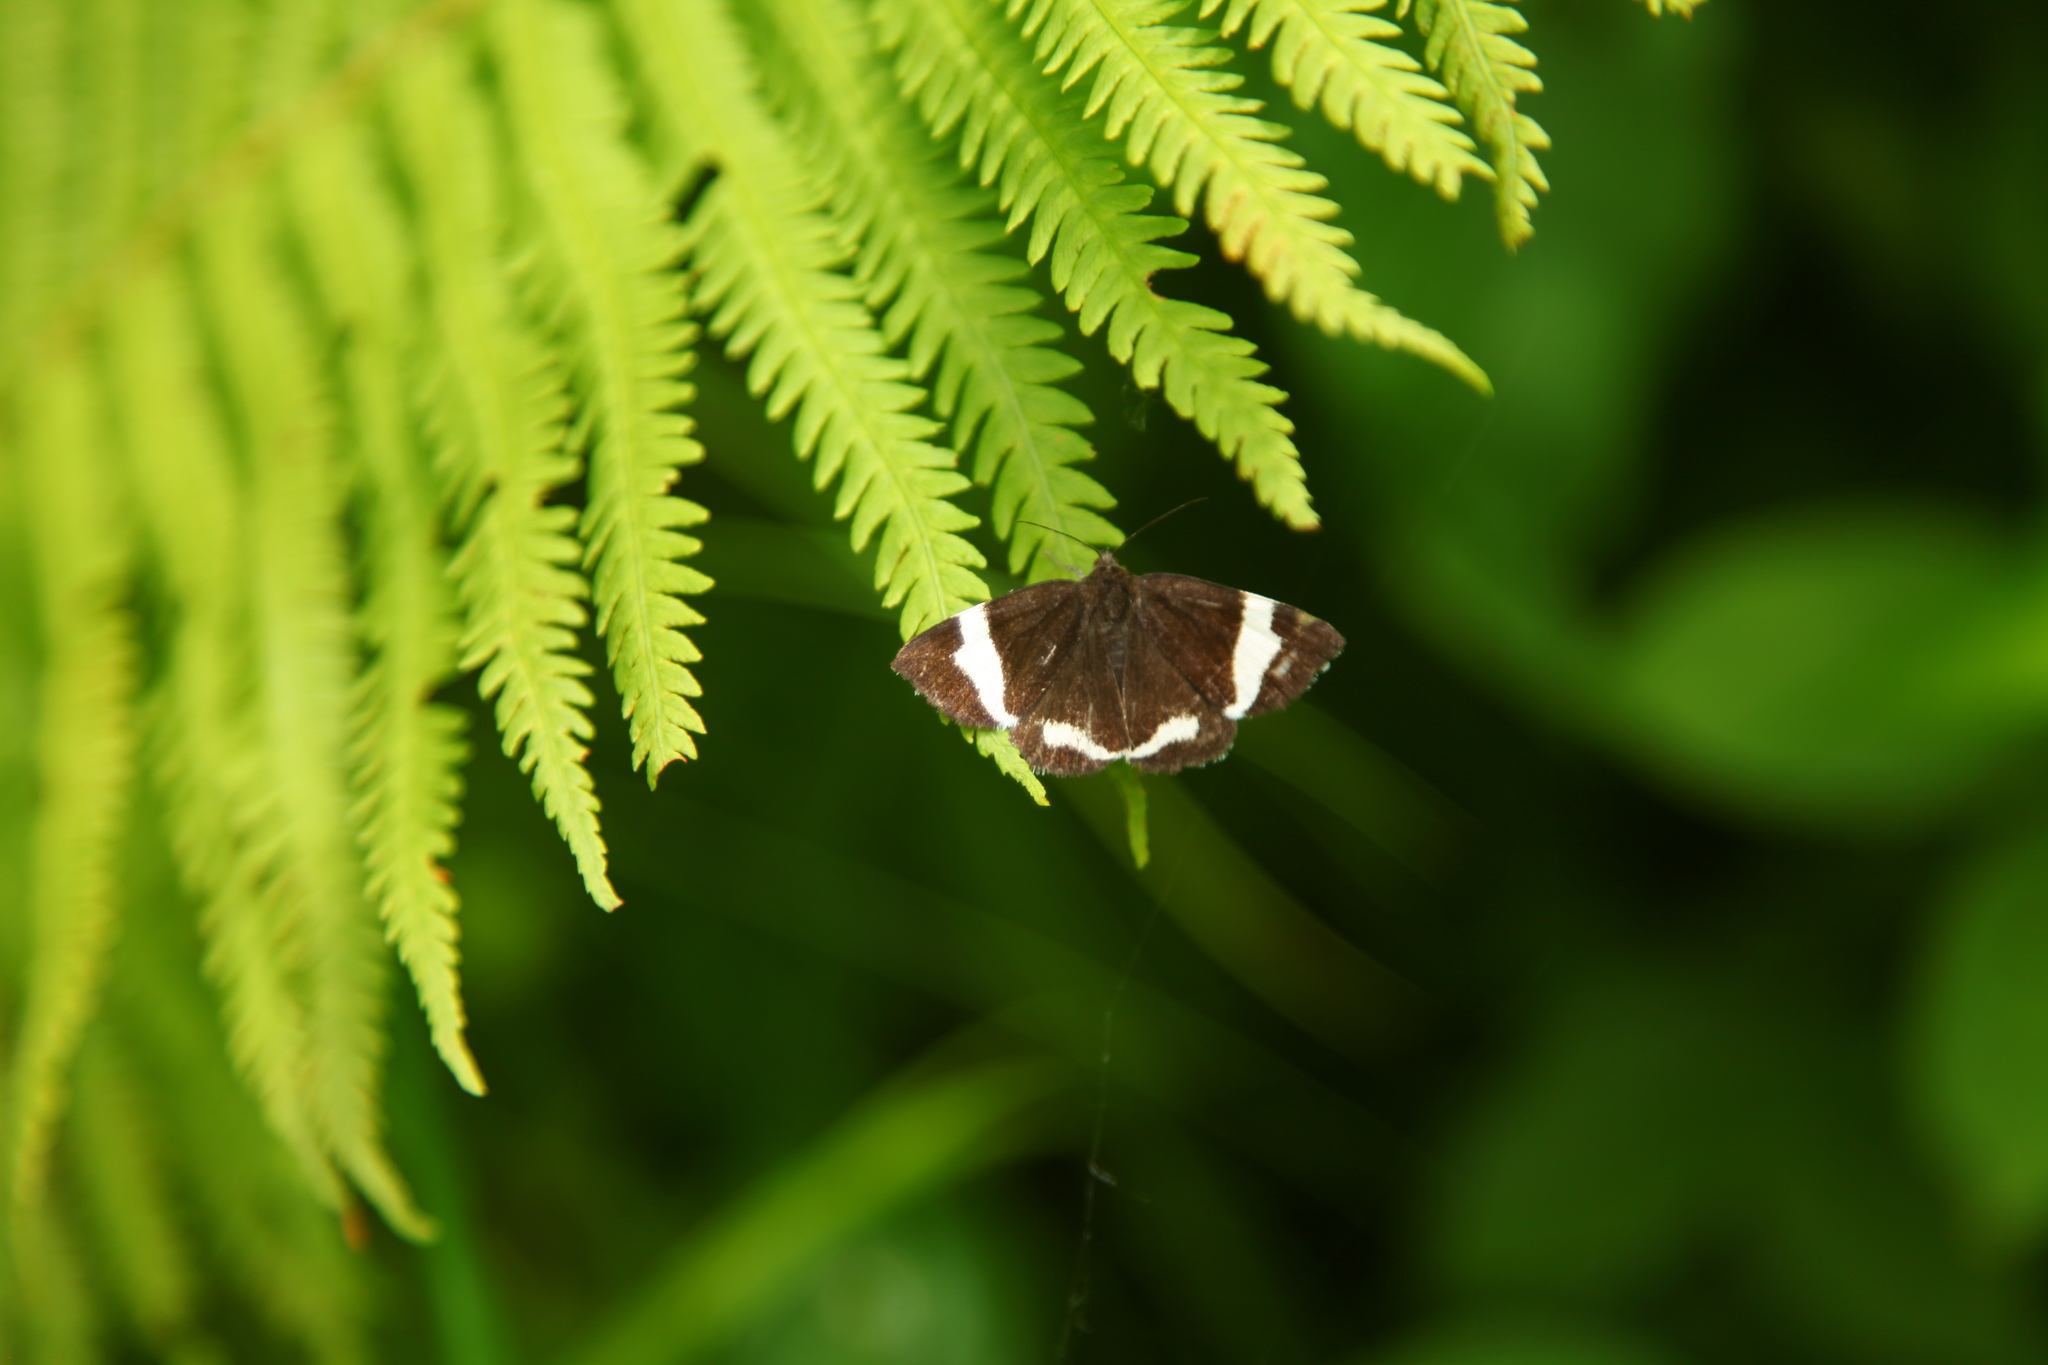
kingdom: Animalia
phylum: Arthropoda
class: Insecta
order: Lepidoptera
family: Erebidae
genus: Leucomelas
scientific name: Leucomelas juvenilis
